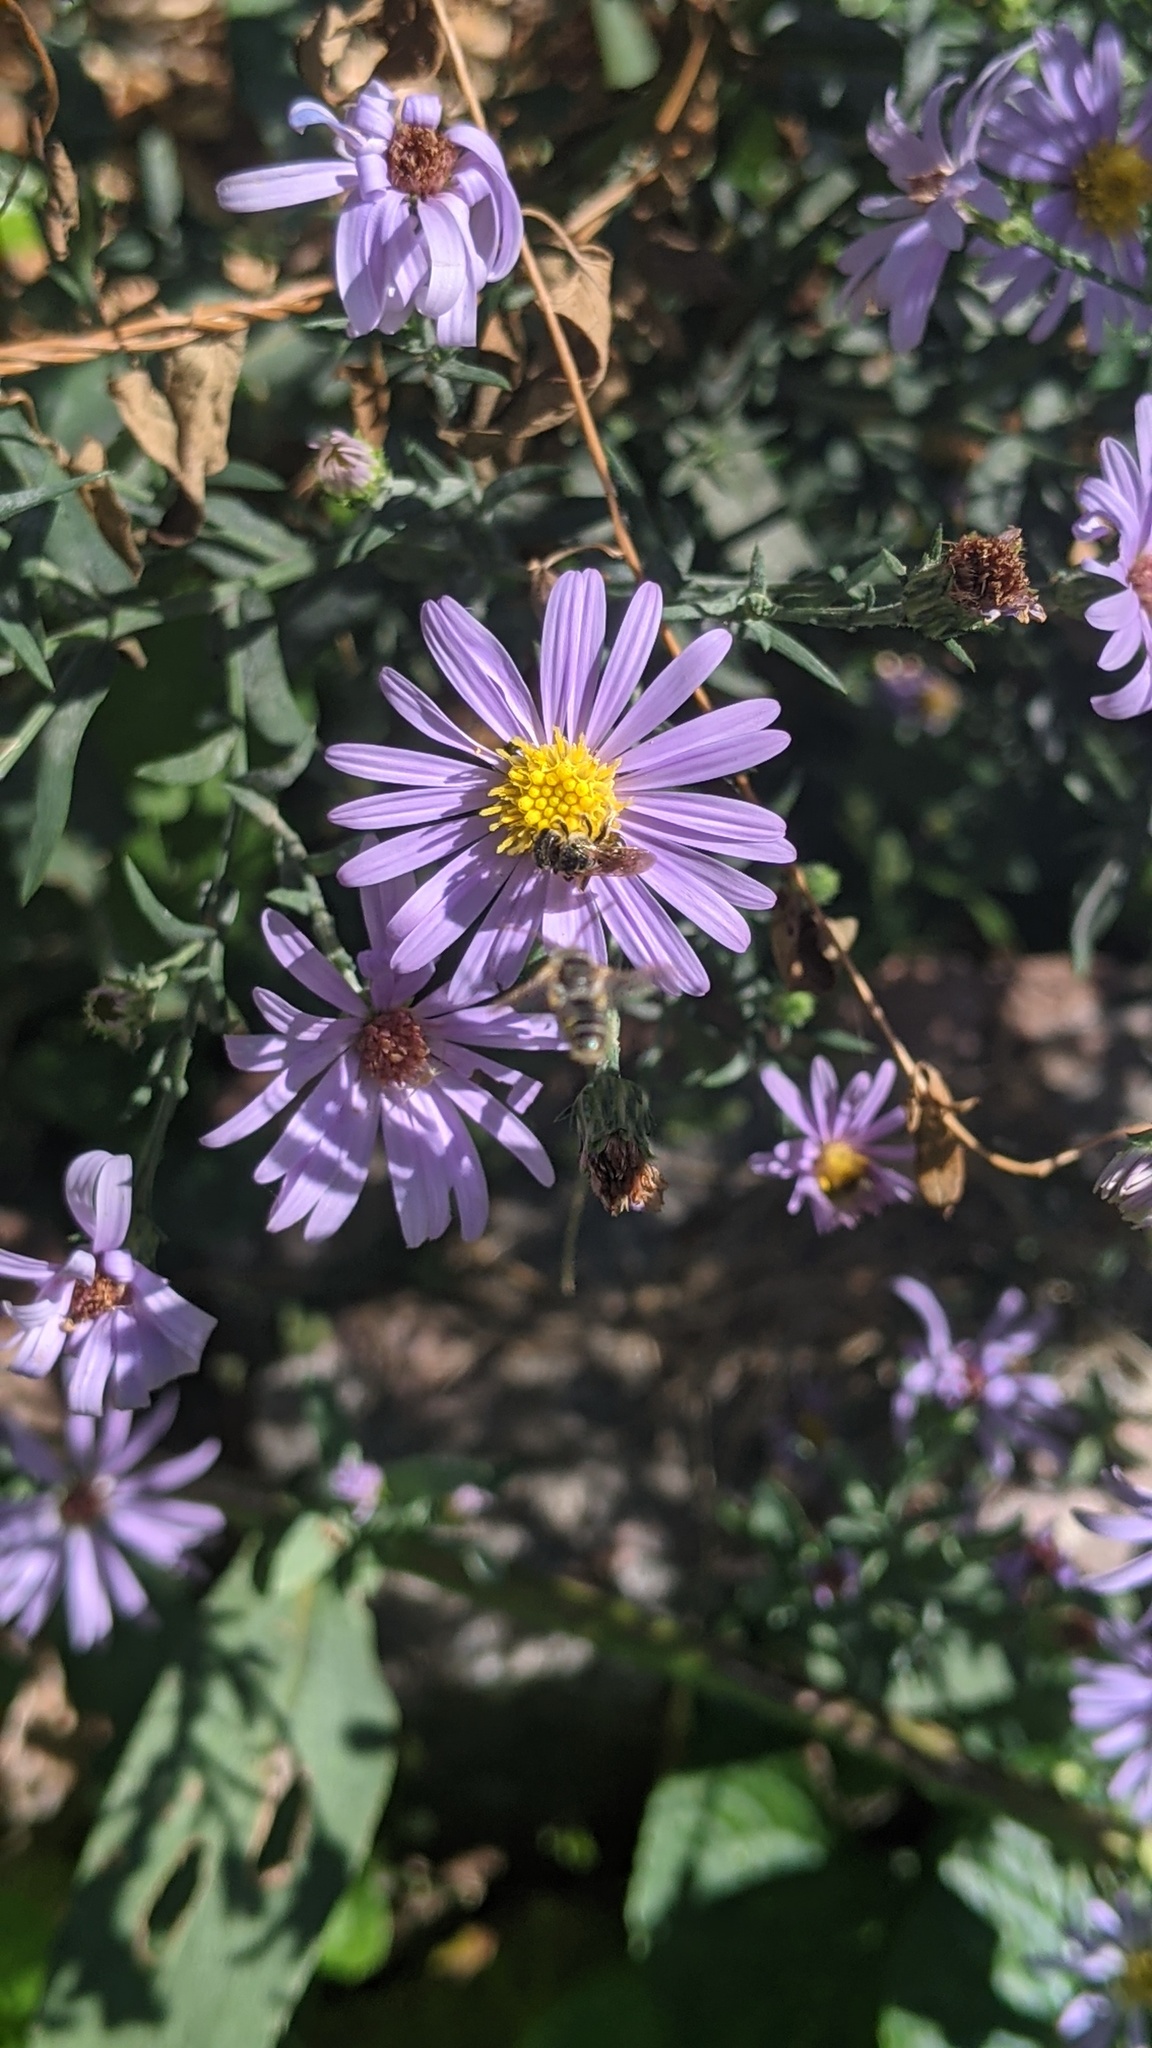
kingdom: Animalia
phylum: Arthropoda
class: Insecta
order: Hymenoptera
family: Halictidae
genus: Halictus
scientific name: Halictus ligatus
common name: Ligated furrow bee
